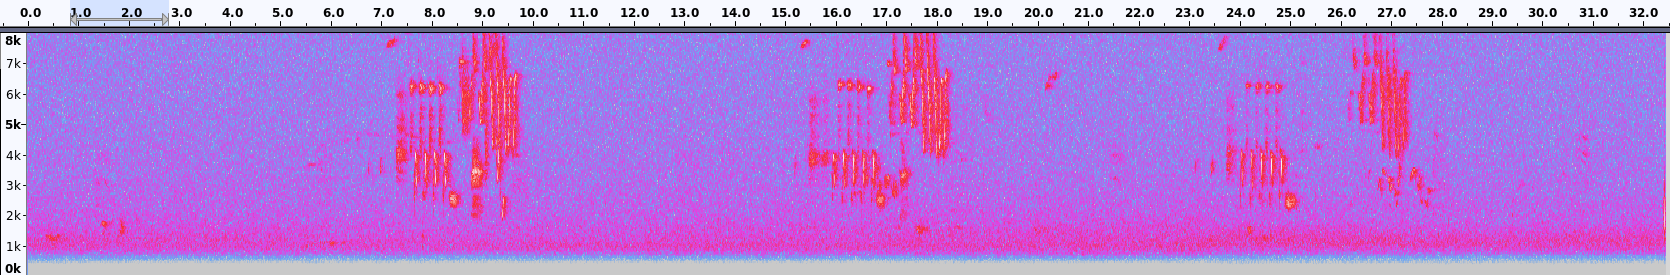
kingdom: Animalia
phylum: Chordata
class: Aves
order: Passeriformes
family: Passerellidae
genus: Melospiza
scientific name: Melospiza melodia
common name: Song sparrow
